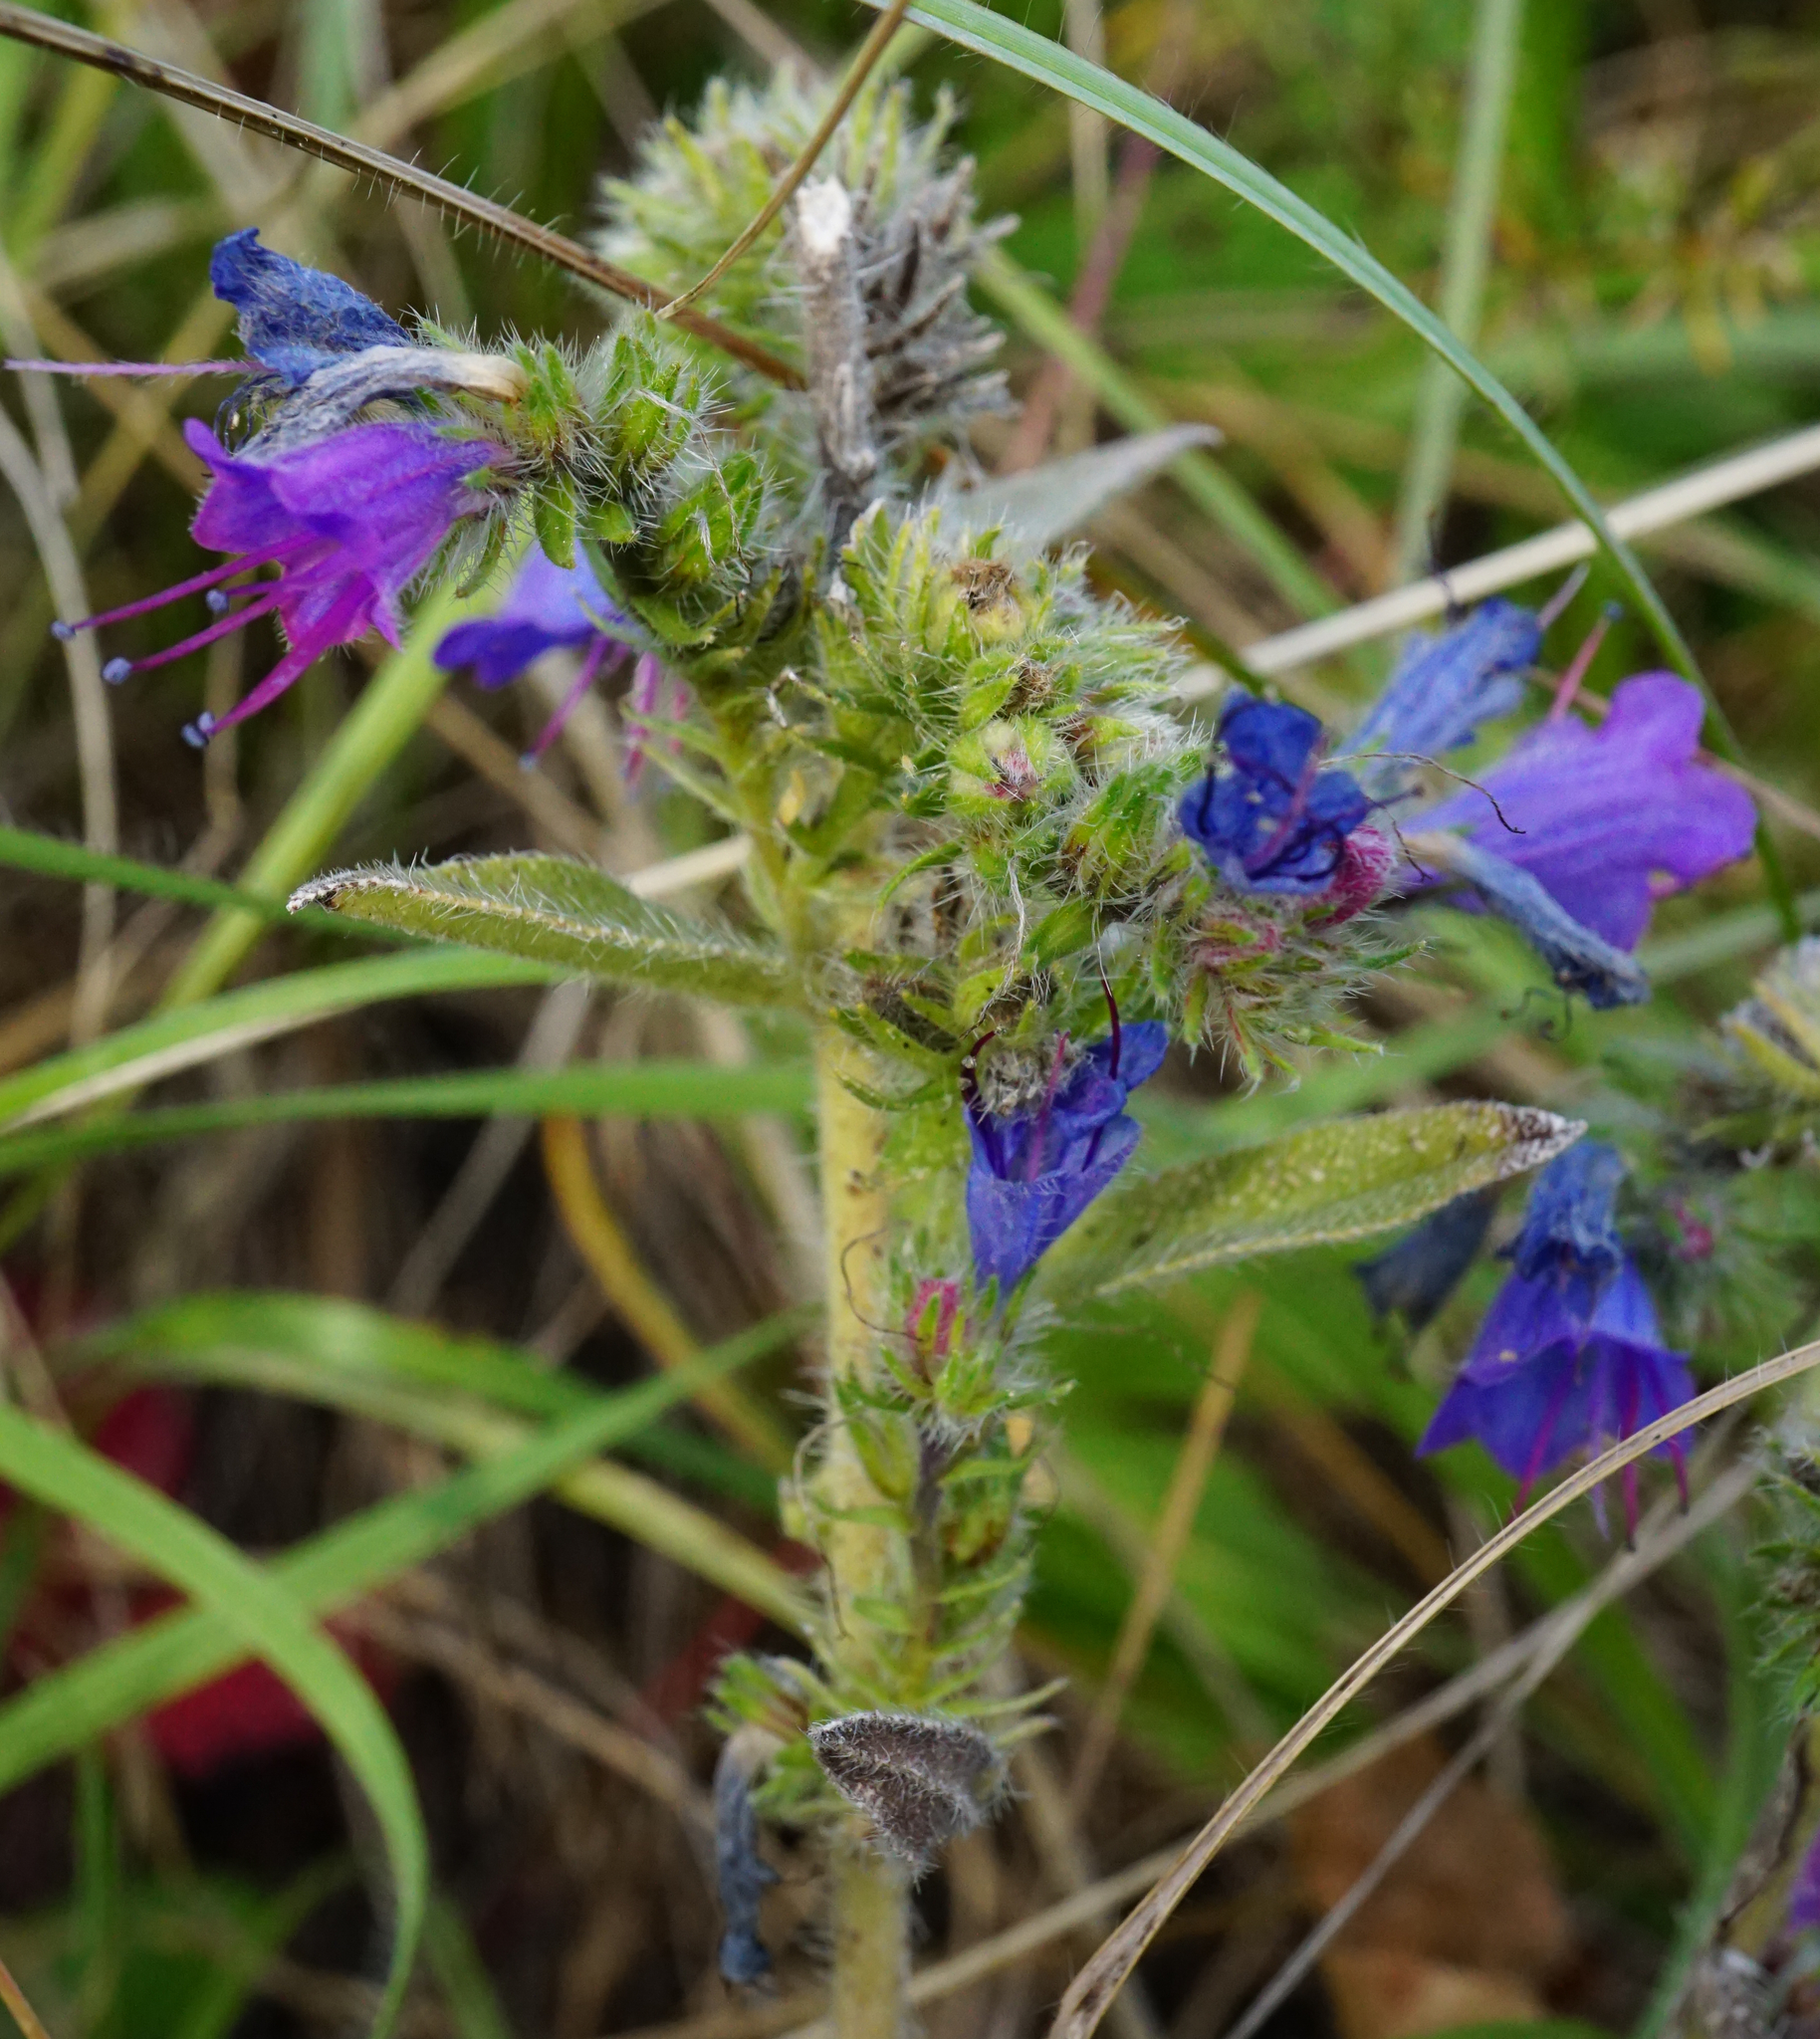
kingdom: Plantae
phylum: Tracheophyta
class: Magnoliopsida
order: Boraginales
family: Boraginaceae
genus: Echium
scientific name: Echium vulgare
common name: Common viper's bugloss
